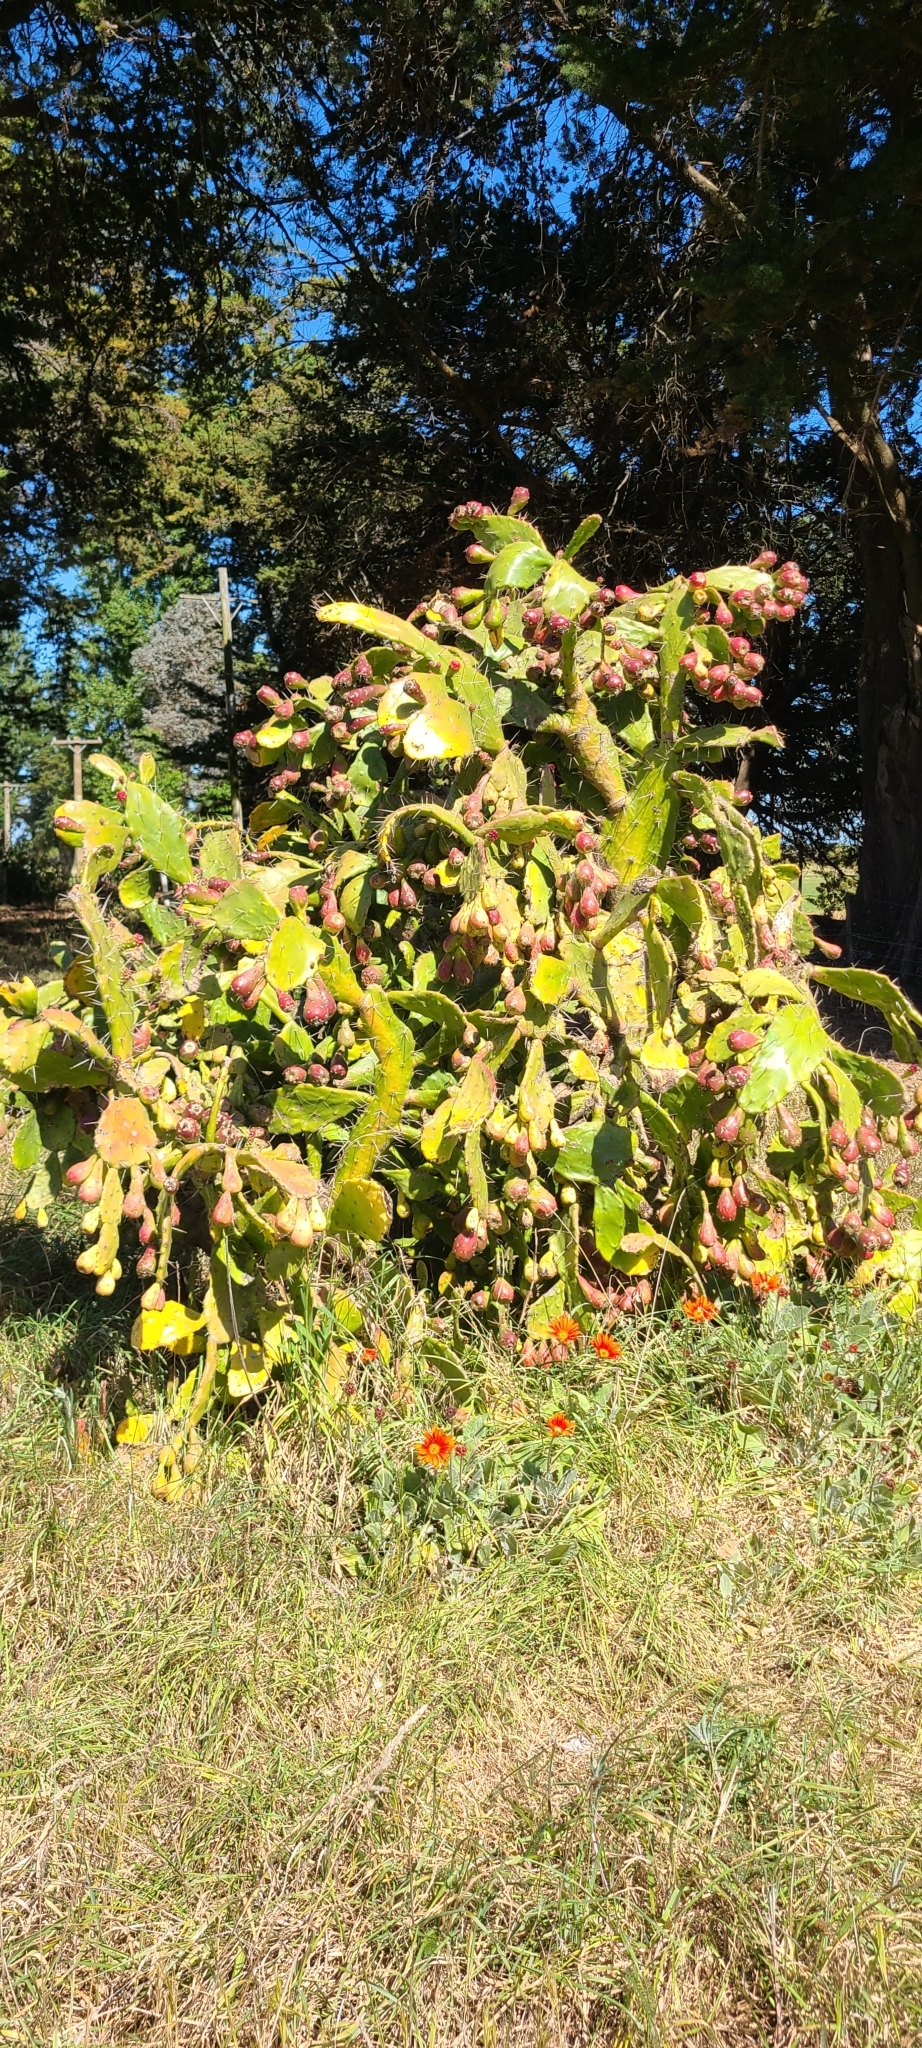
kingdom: Plantae
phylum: Tracheophyta
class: Magnoliopsida
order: Caryophyllales
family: Cactaceae
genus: Opuntia
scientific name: Opuntia monacantha
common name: Common pricklypear
